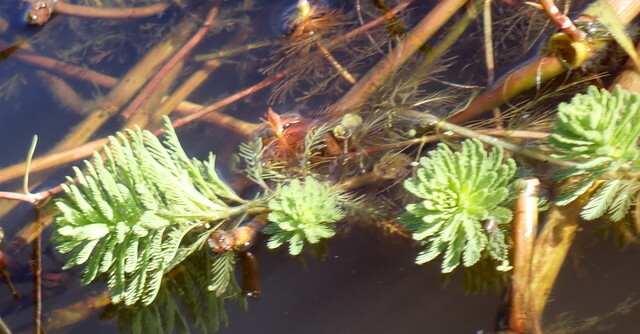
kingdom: Plantae
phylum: Tracheophyta
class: Magnoliopsida
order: Saxifragales
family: Haloragaceae
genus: Myriophyllum
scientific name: Myriophyllum aquaticum
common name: Parrot's feather
